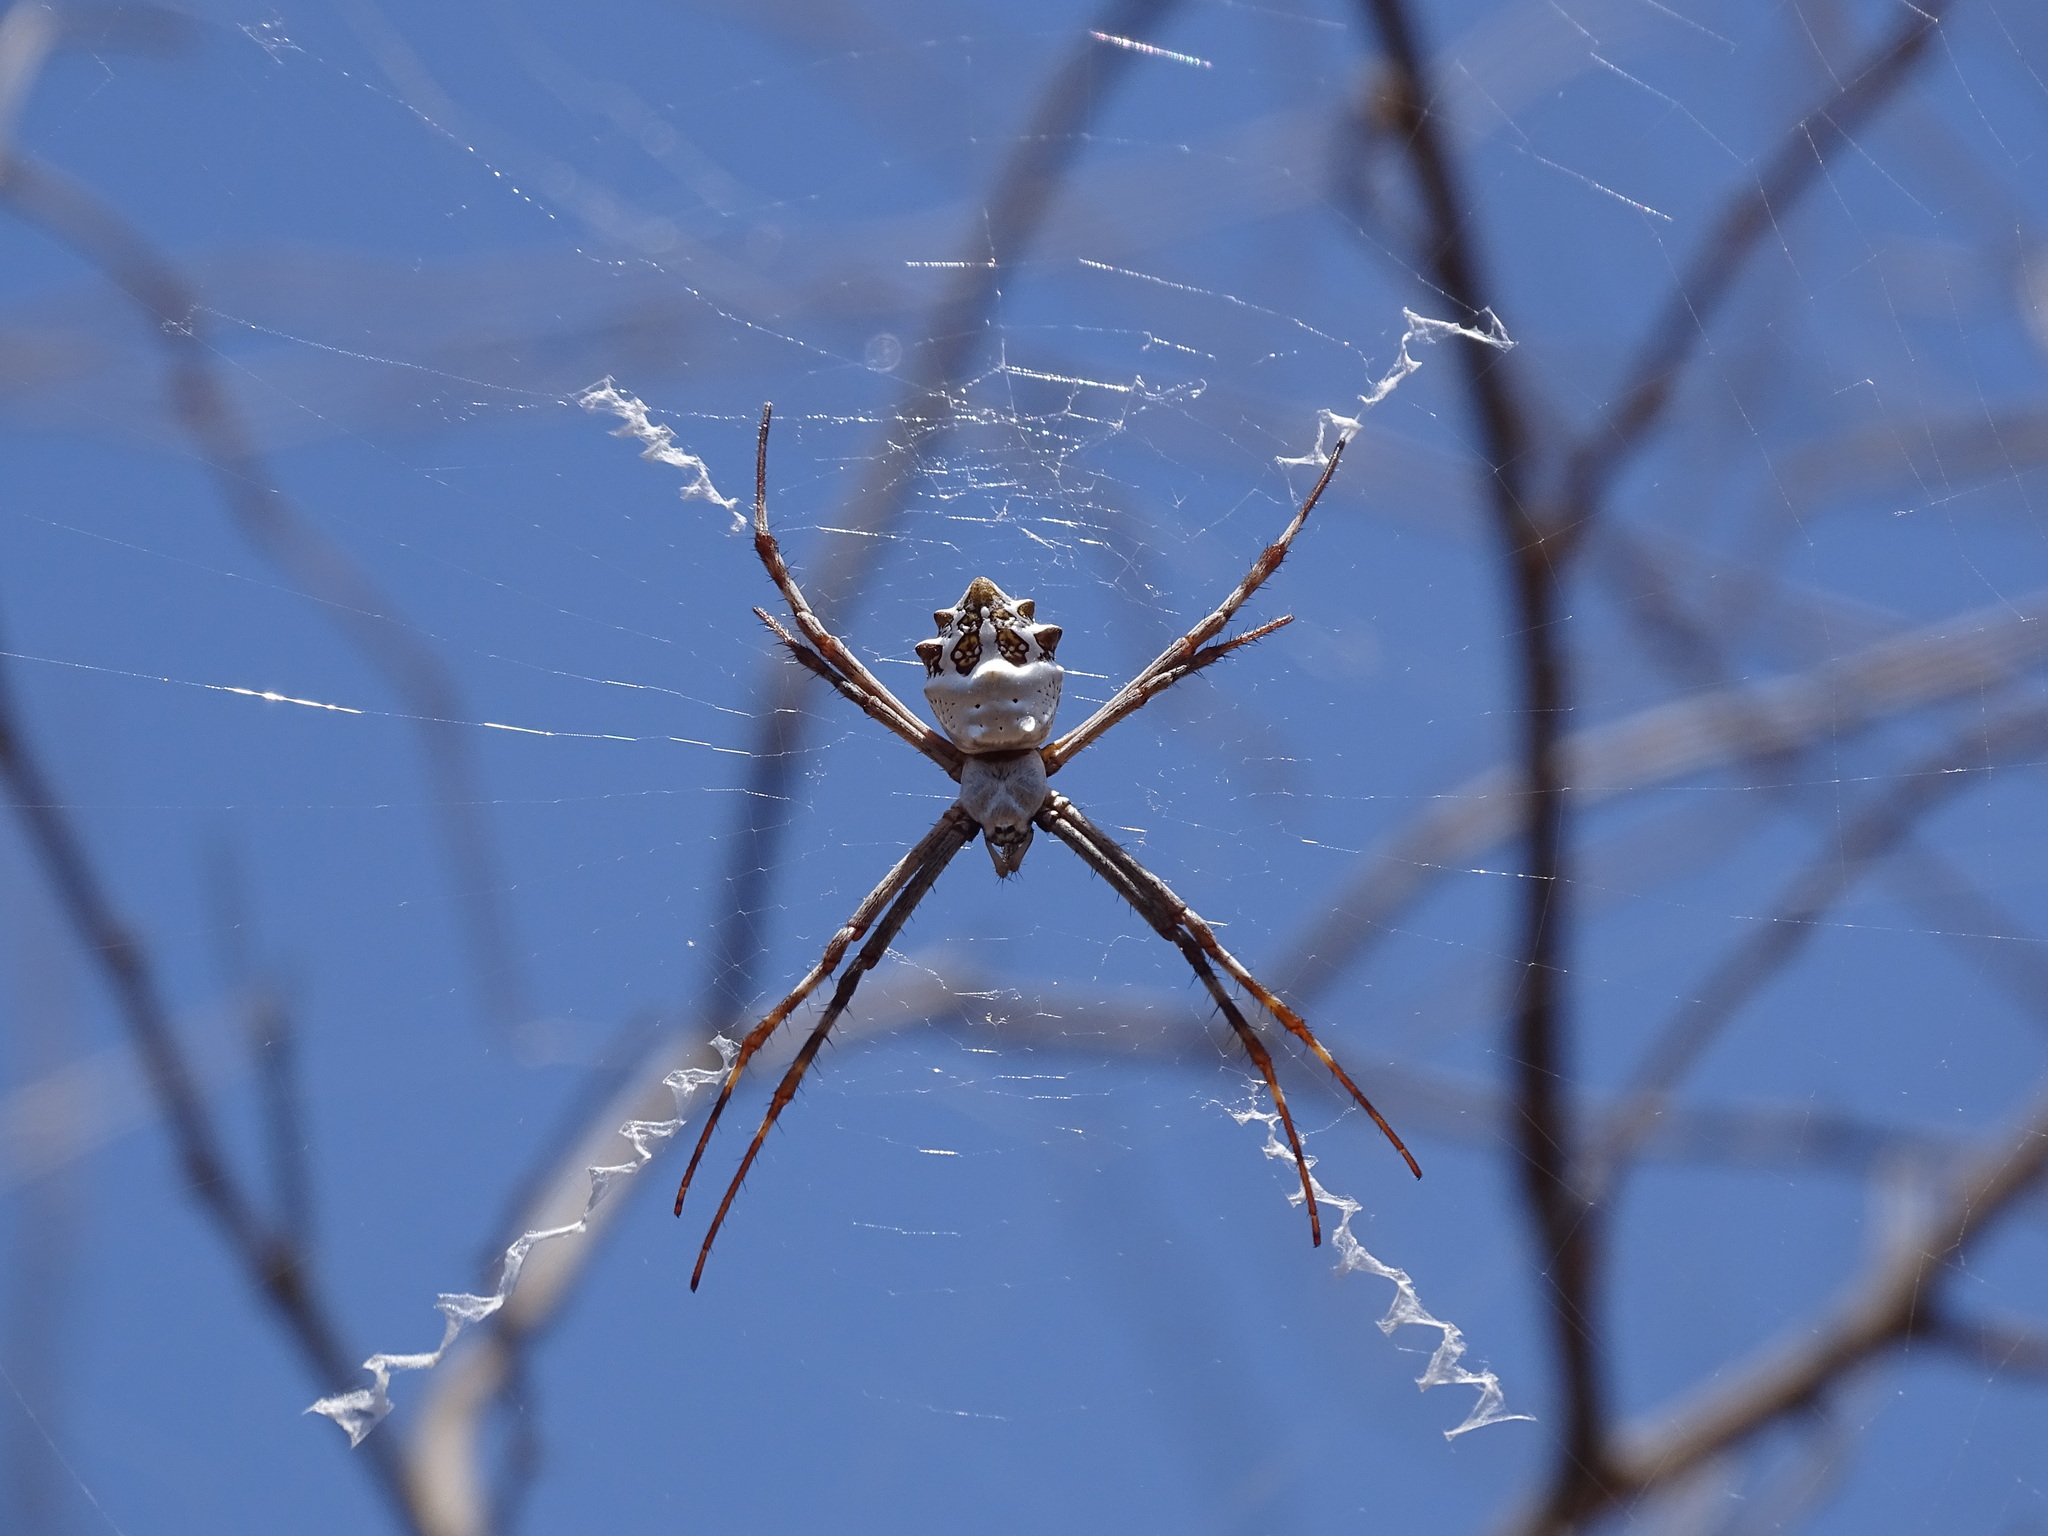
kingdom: Animalia
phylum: Arthropoda
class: Arachnida
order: Araneae
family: Araneidae
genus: Argiope
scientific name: Argiope argentata
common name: Orb weavers
